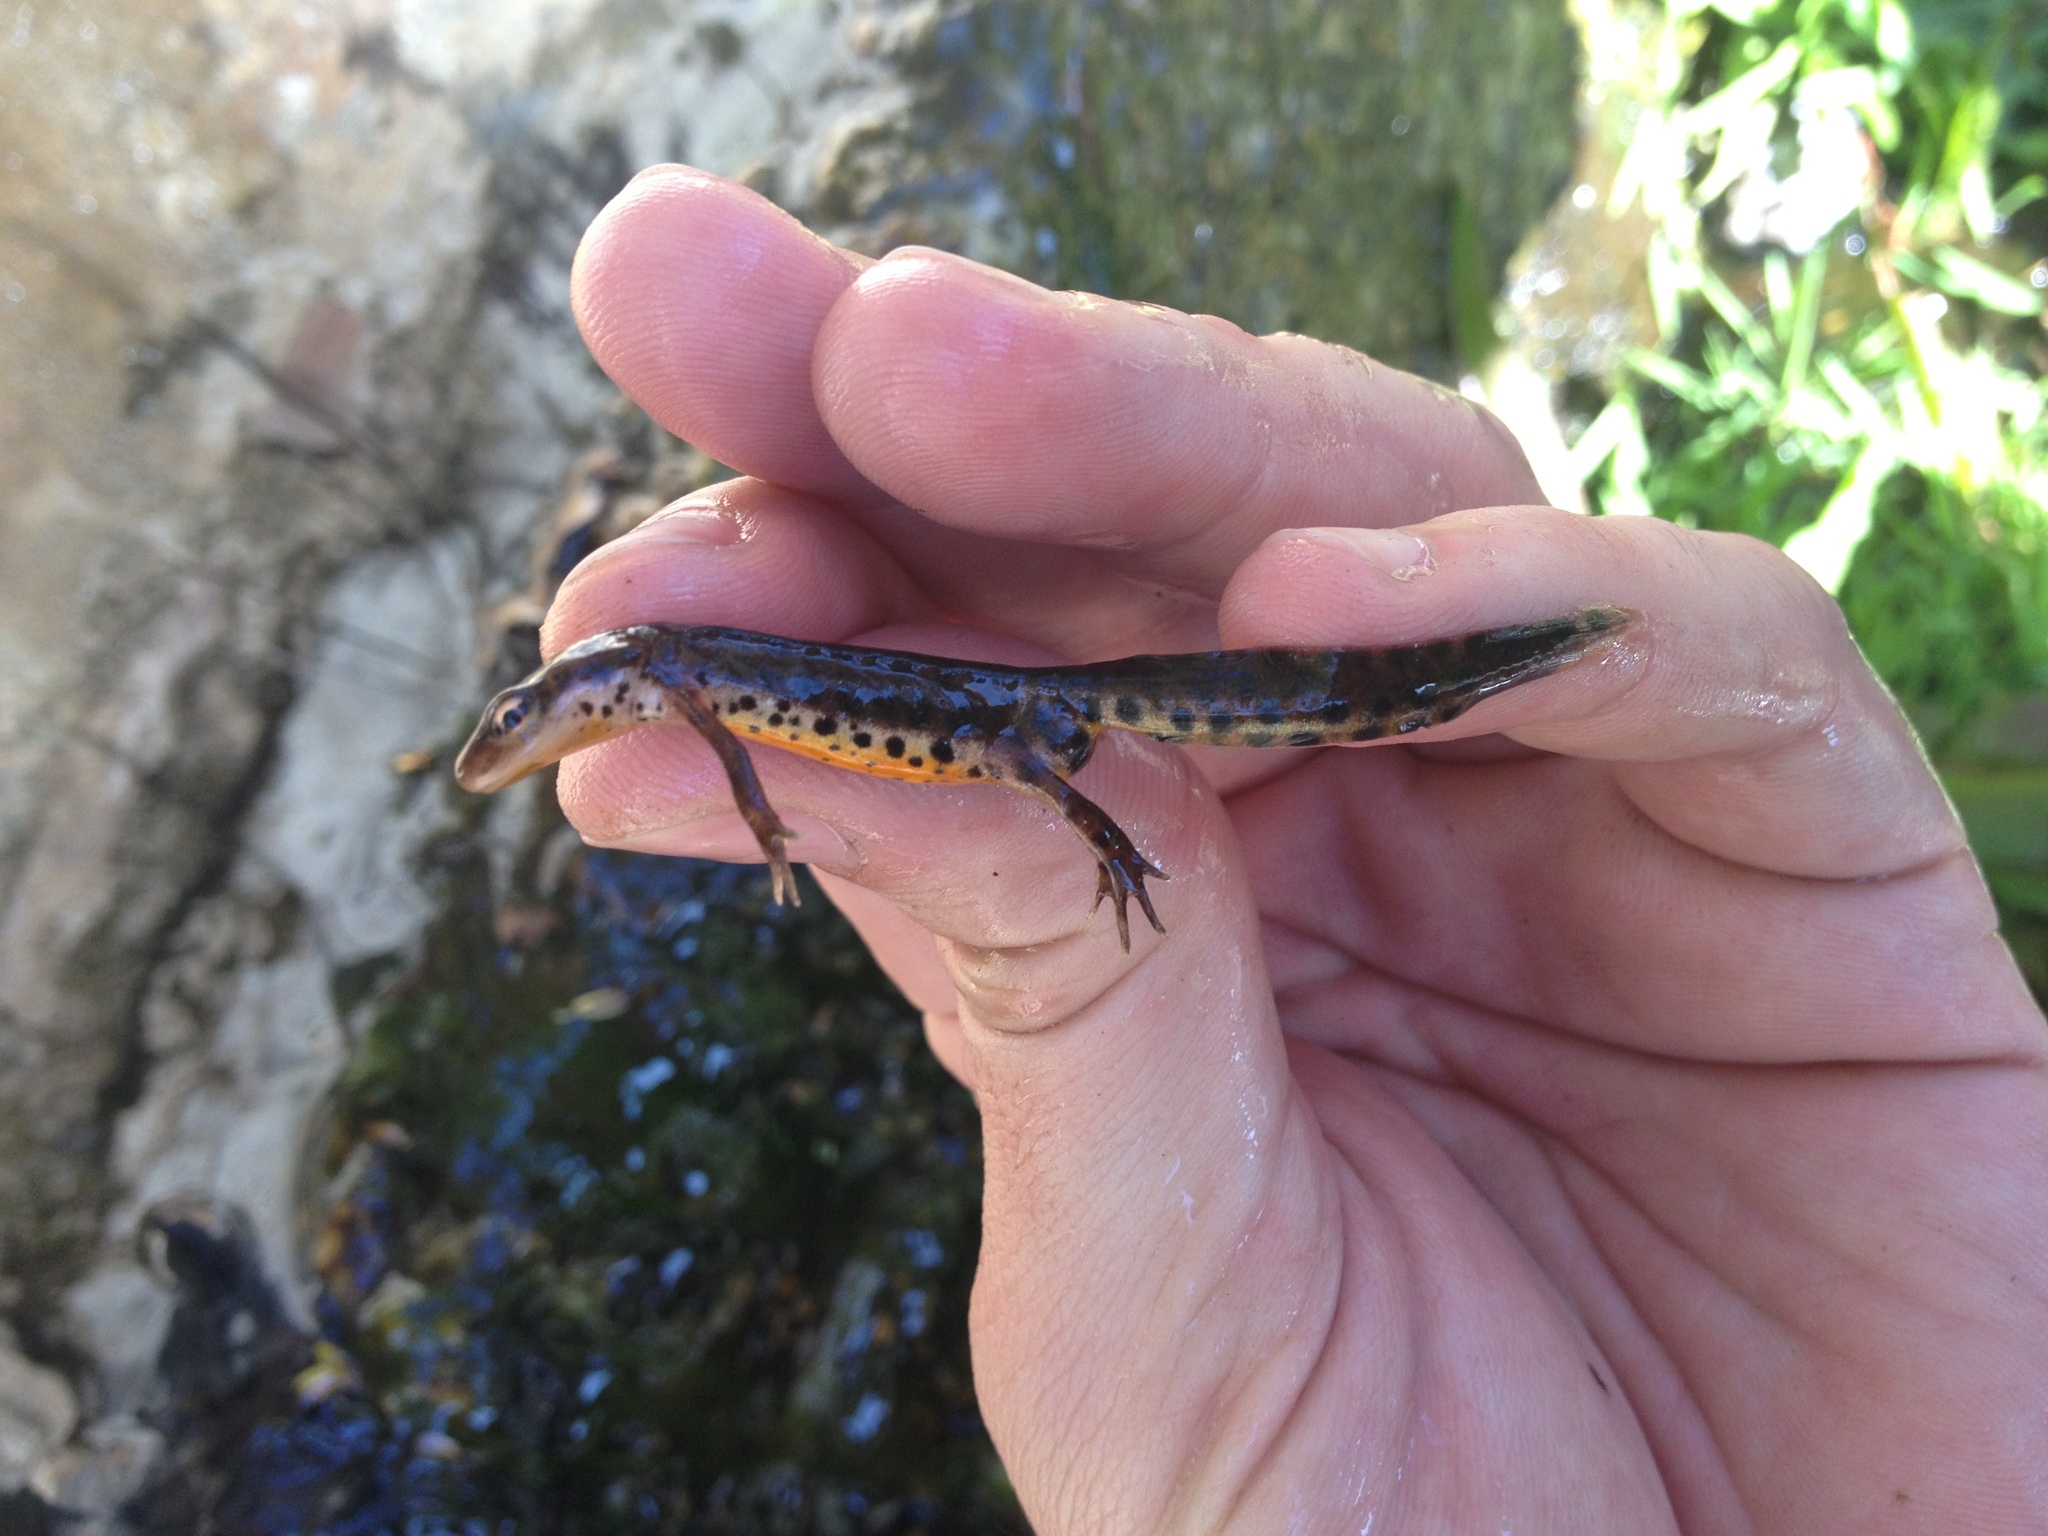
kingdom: Animalia
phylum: Chordata
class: Amphibia
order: Caudata
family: Salamandridae
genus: Lissotriton
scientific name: Lissotriton boscai
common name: Bosca's newt
